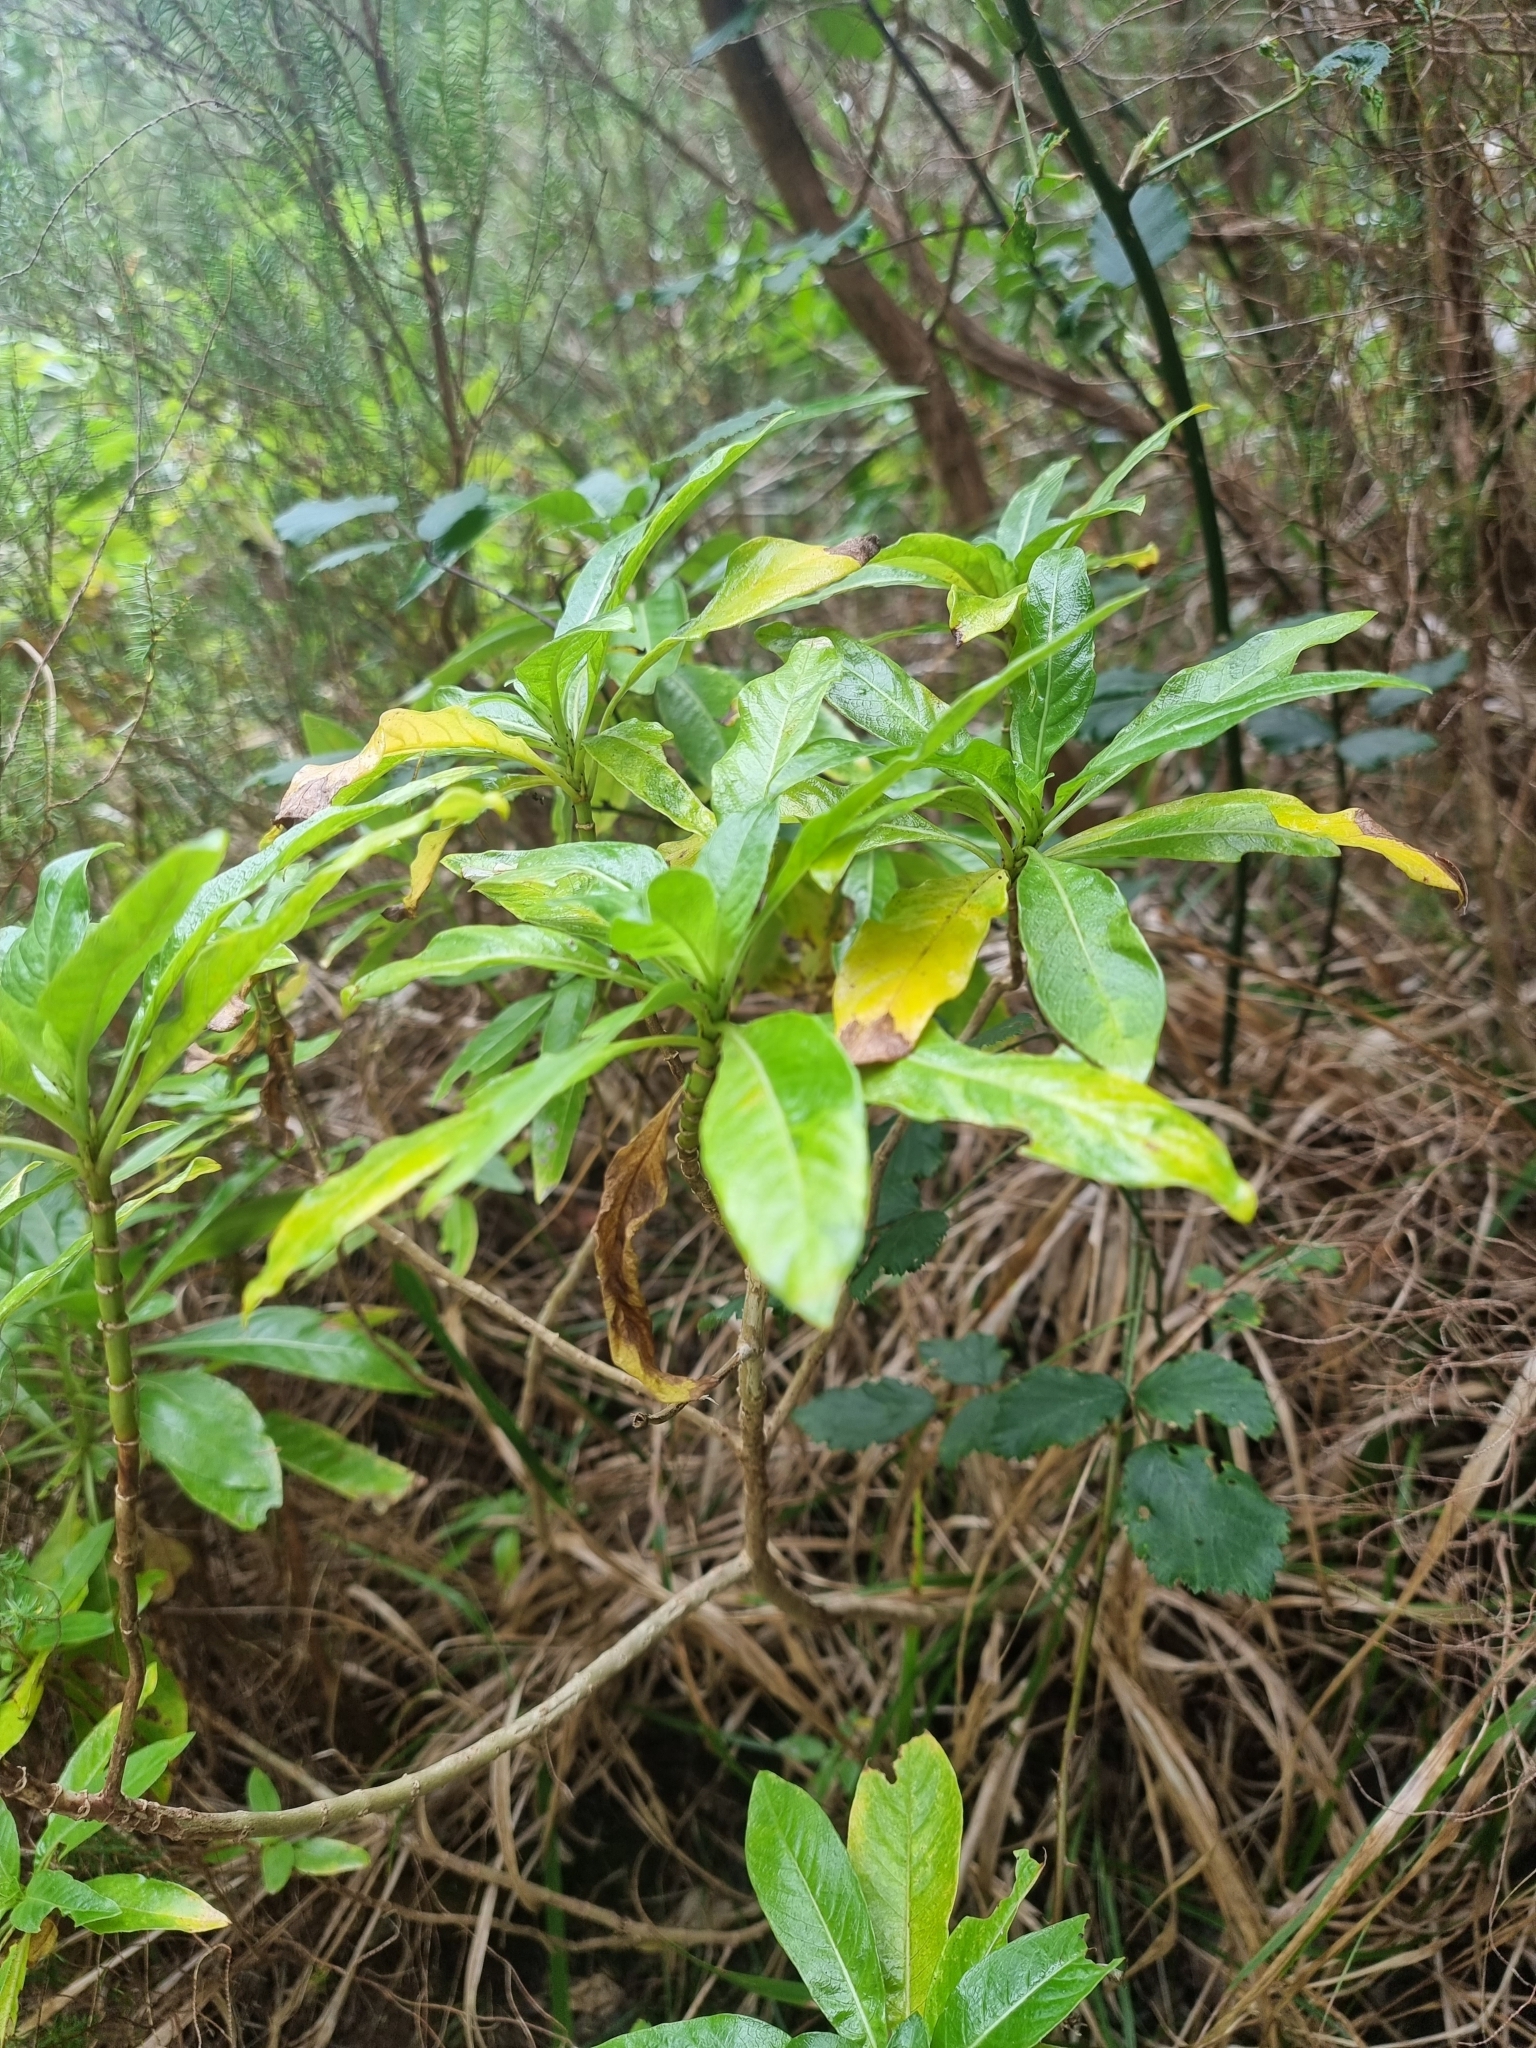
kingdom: Plantae
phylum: Tracheophyta
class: Magnoliopsida
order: Gentianales
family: Rubiaceae
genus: Phyllis
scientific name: Phyllis nobla
